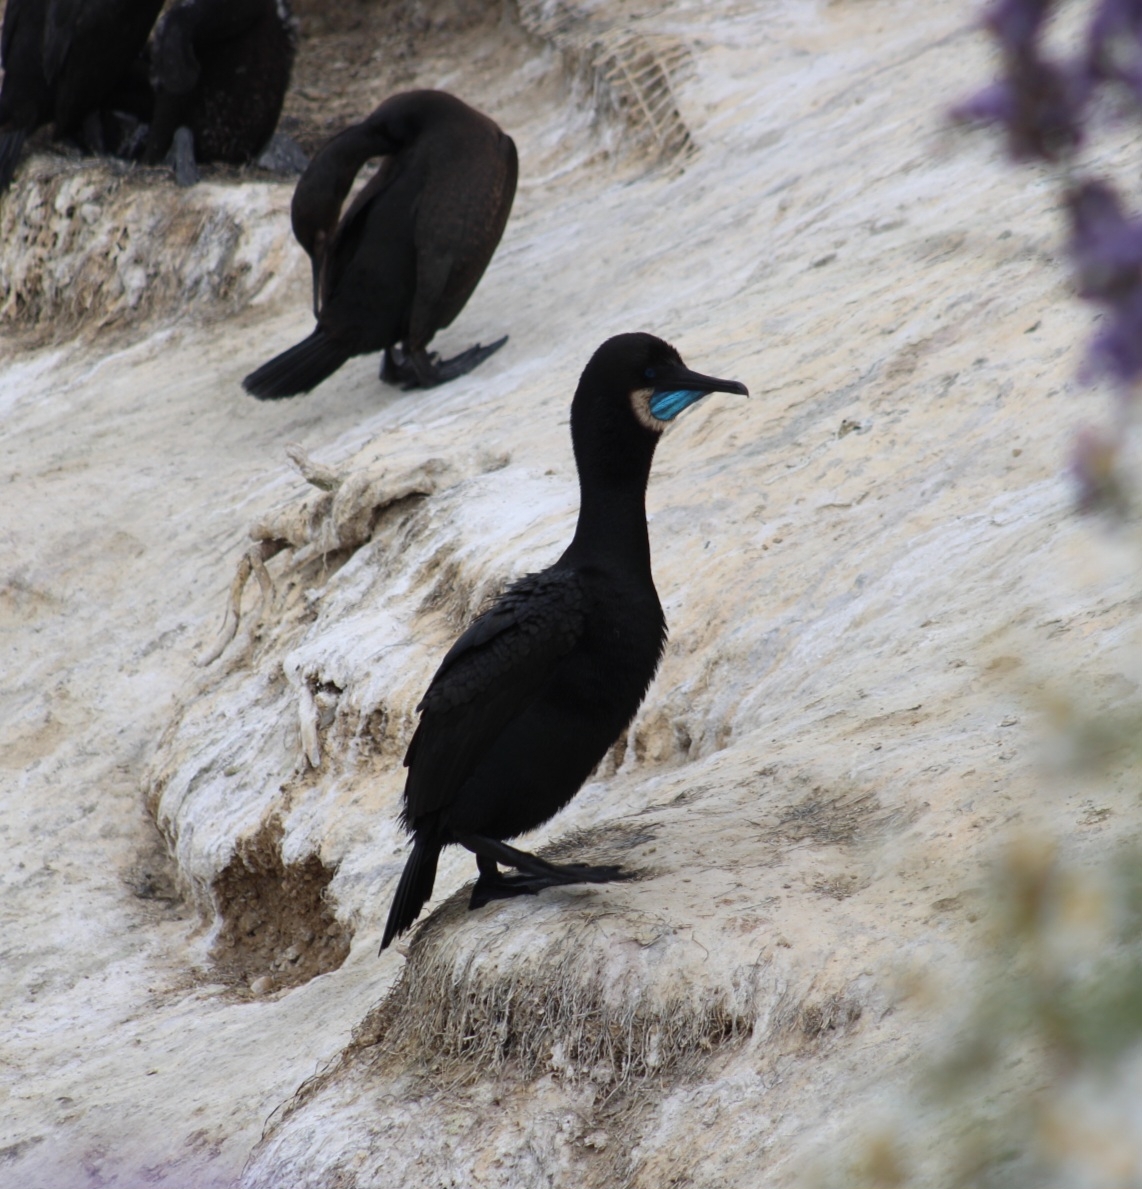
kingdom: Animalia
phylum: Chordata
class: Aves
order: Suliformes
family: Phalacrocoracidae
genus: Urile
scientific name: Urile penicillatus
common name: Brandt's cormorant
